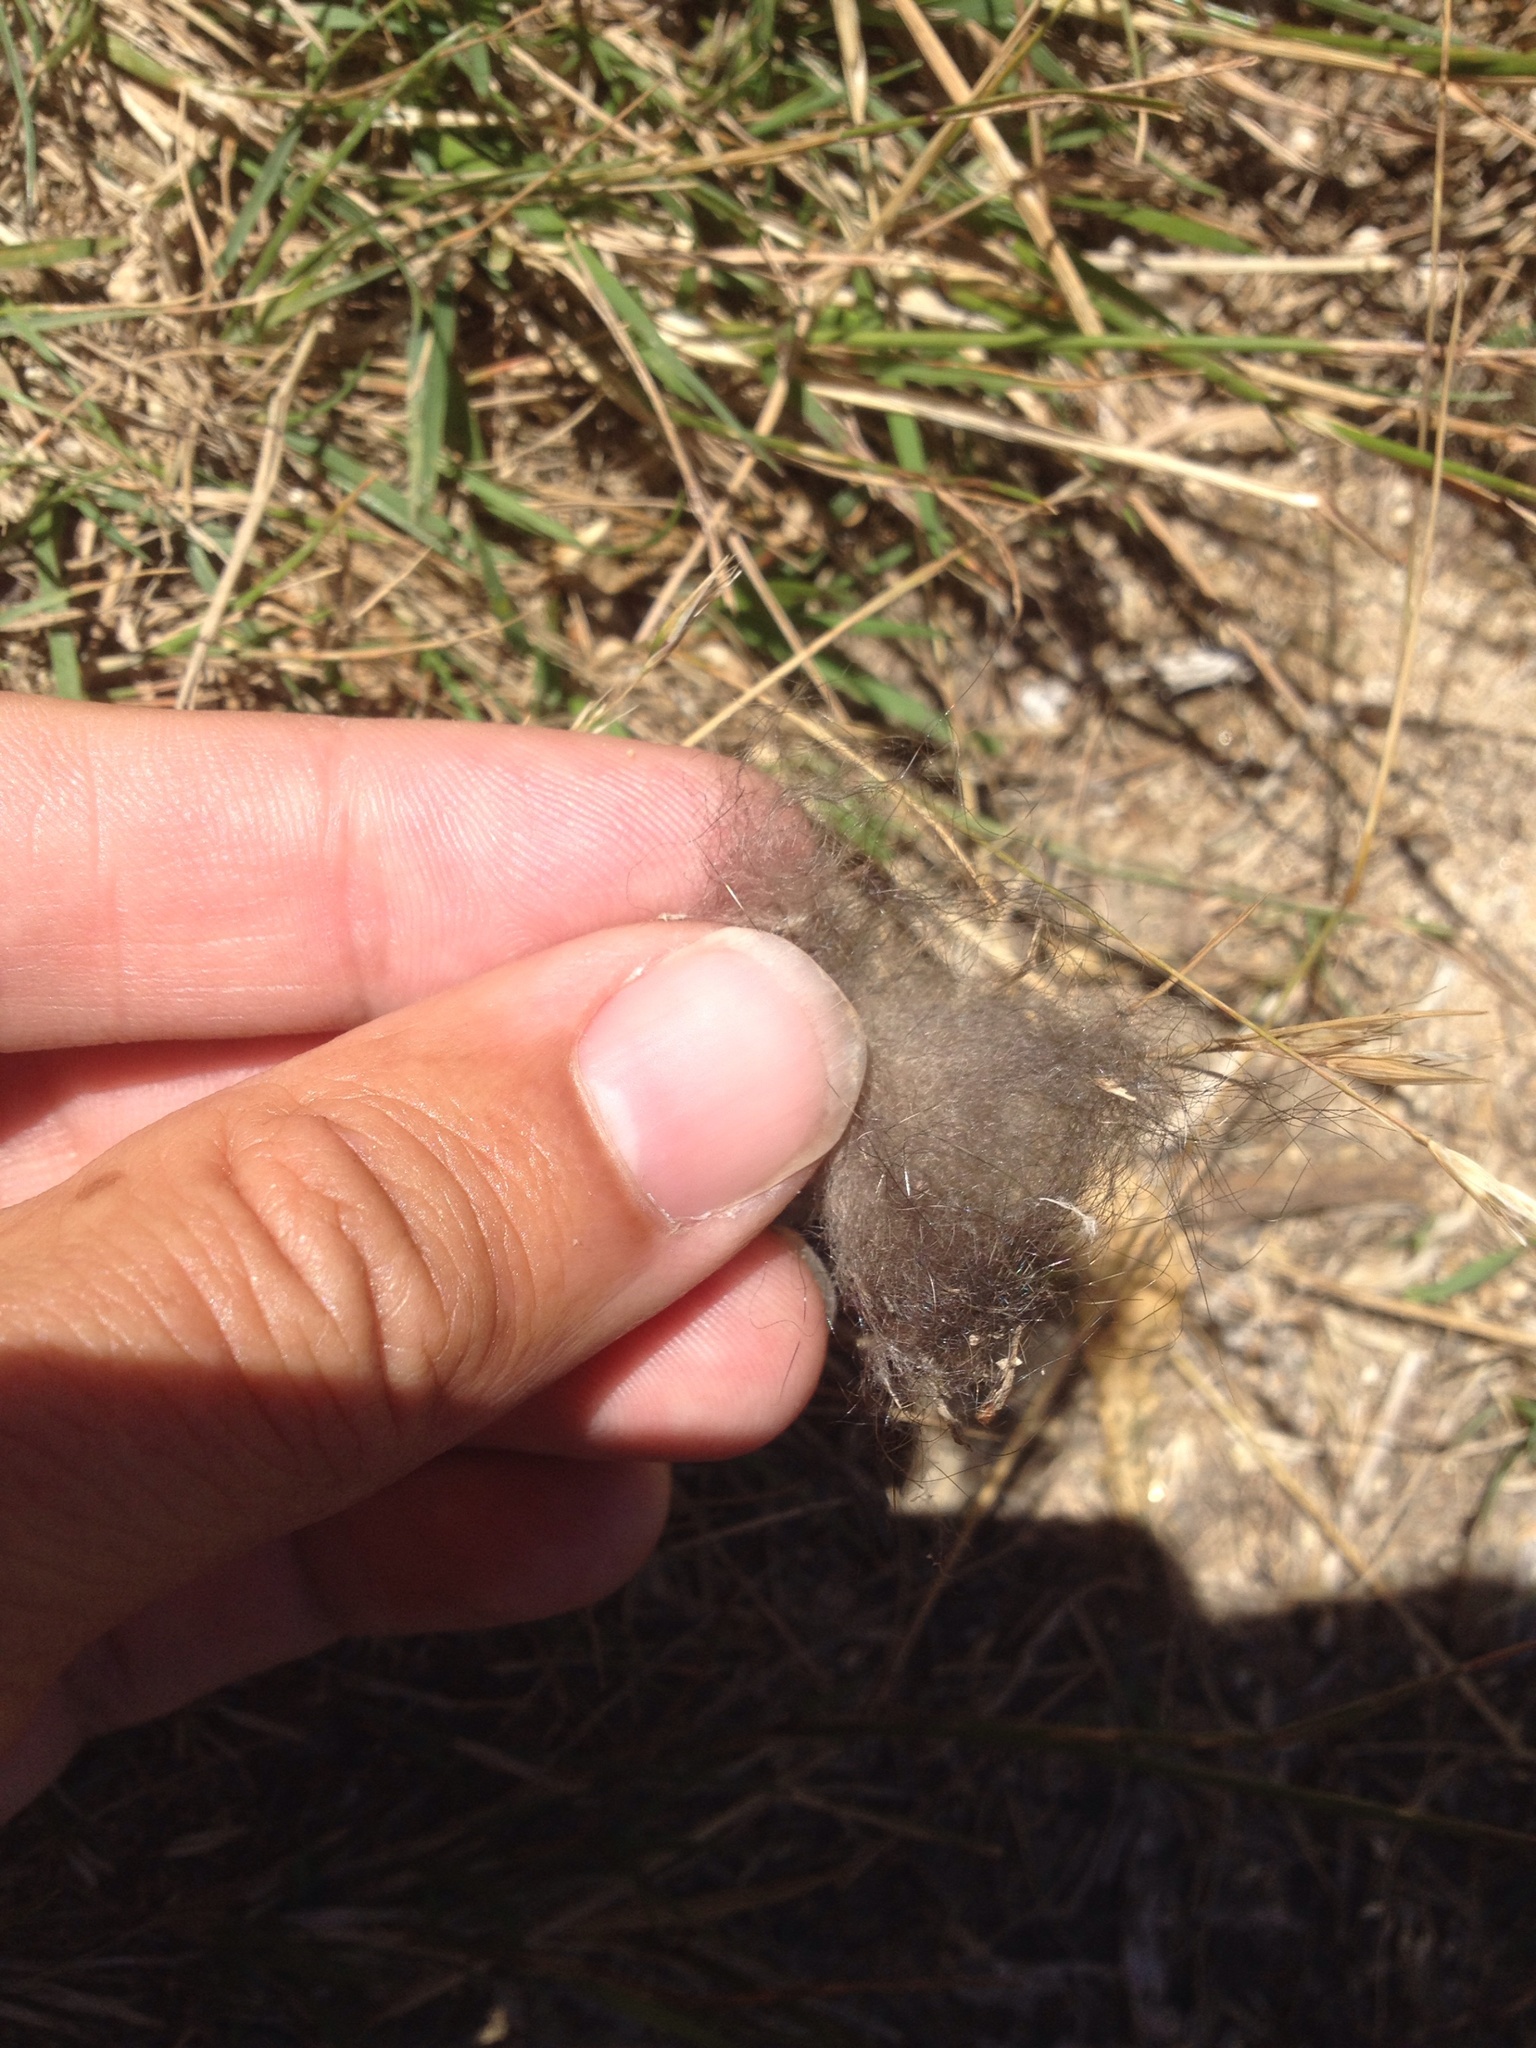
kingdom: Animalia
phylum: Chordata
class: Mammalia
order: Diprotodontia
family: Phalangeridae
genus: Trichosurus
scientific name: Trichosurus vulpecula
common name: Common brushtail
